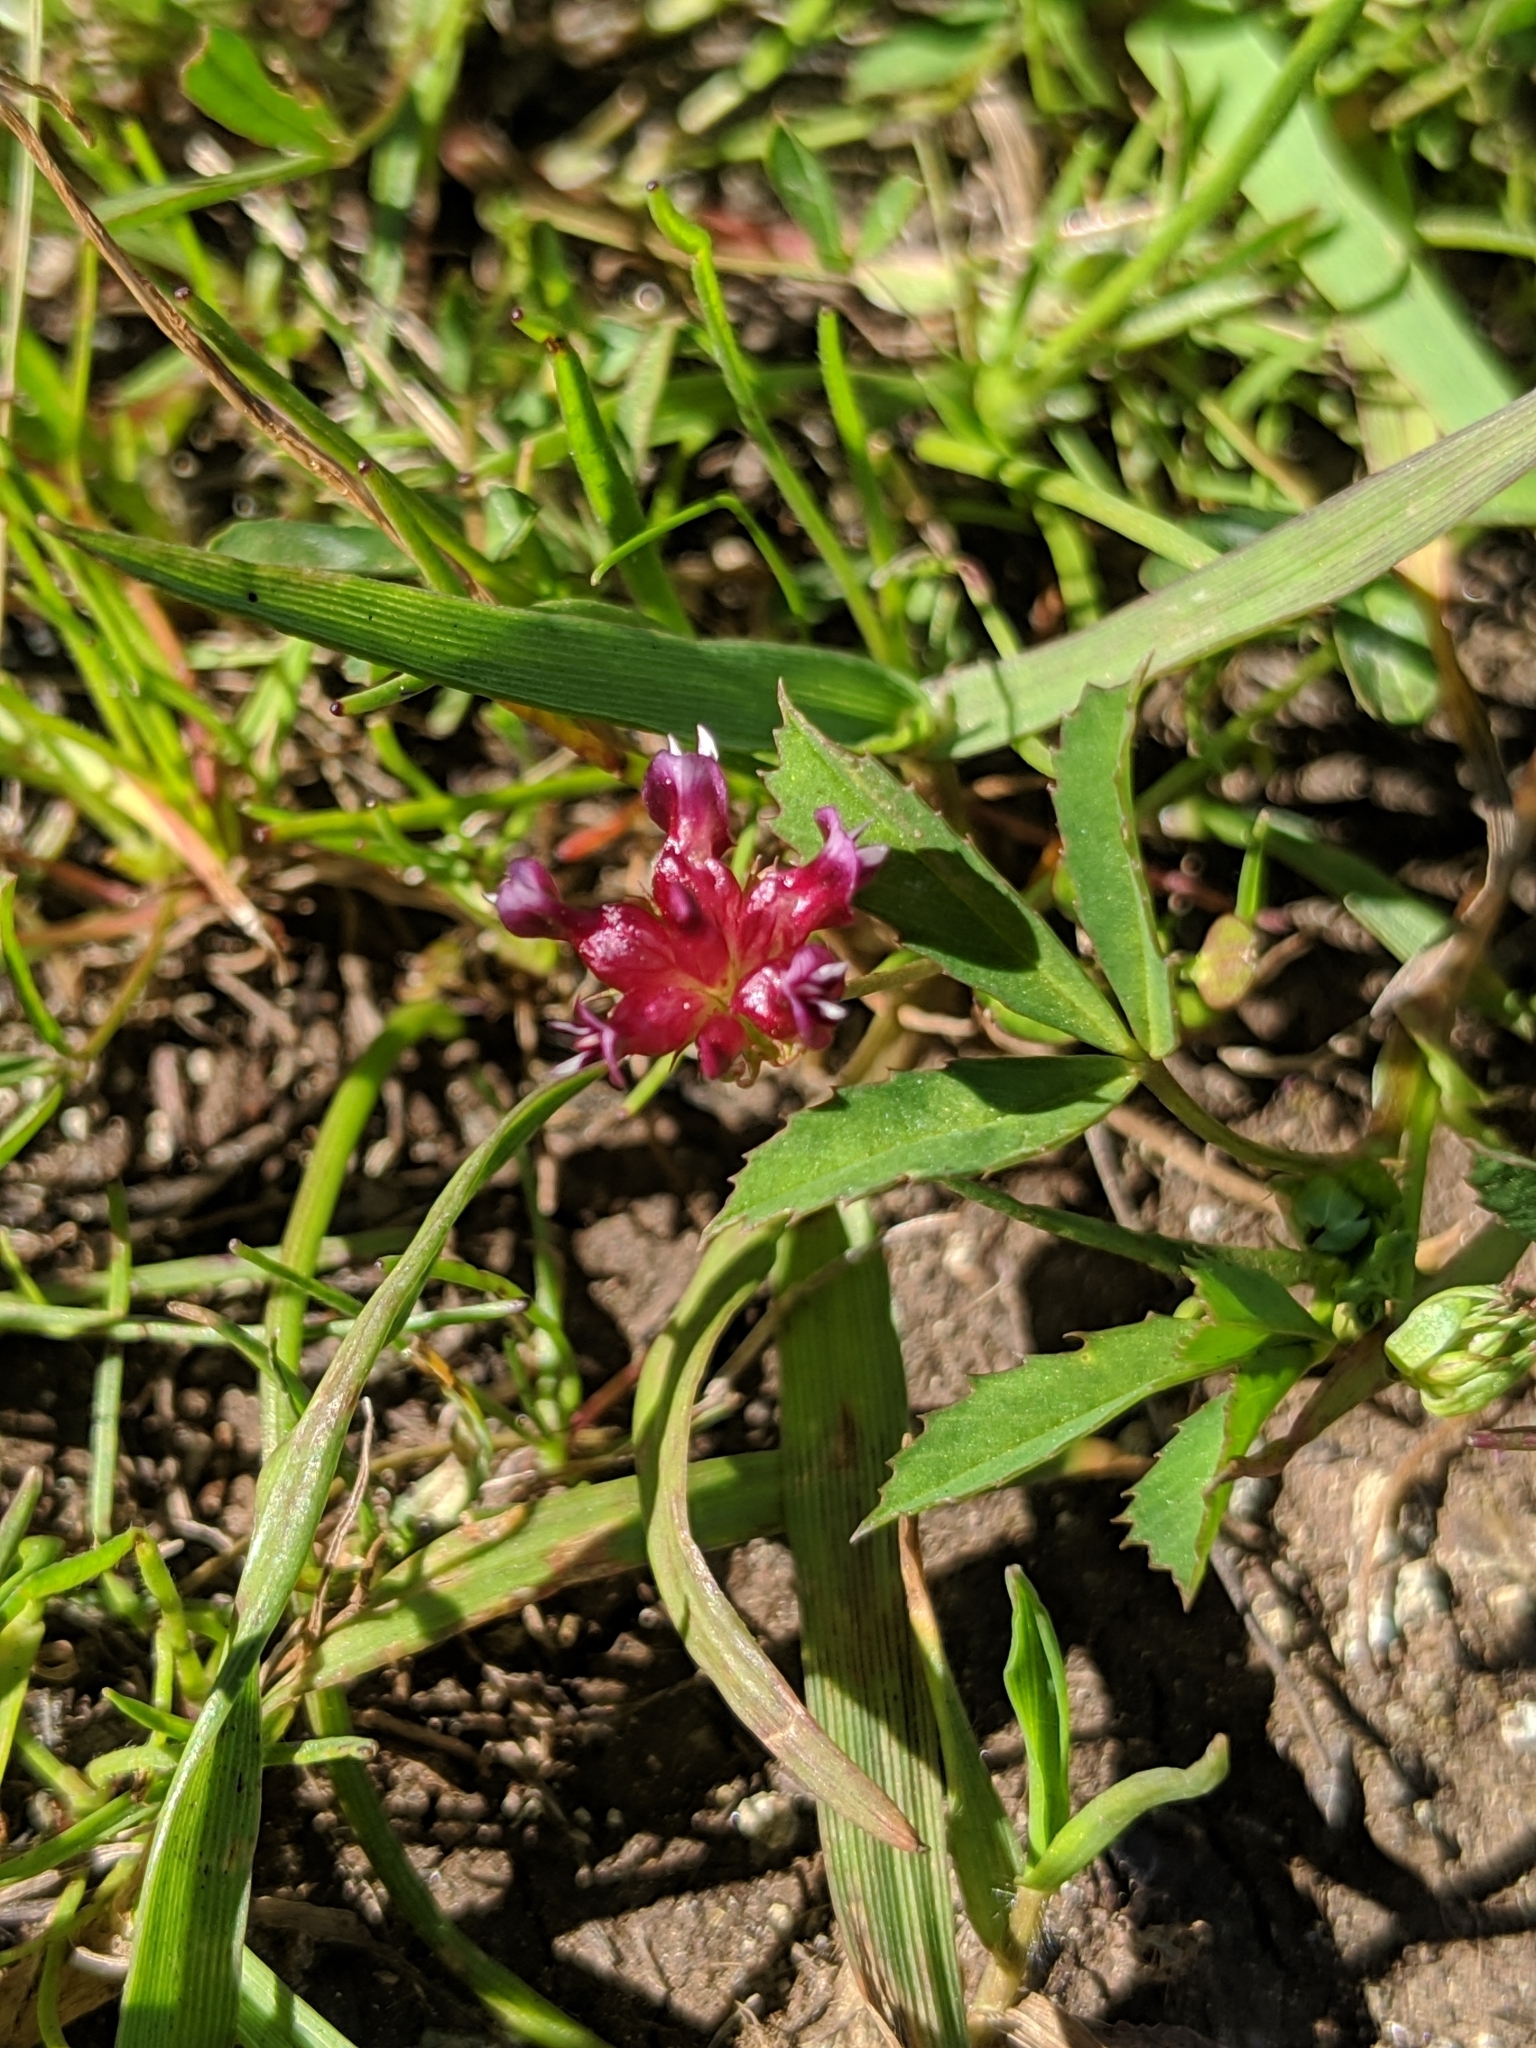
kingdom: Plantae
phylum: Tracheophyta
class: Magnoliopsida
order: Fabales
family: Fabaceae
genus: Trifolium
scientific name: Trifolium depauperatum
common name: Poverty clover
